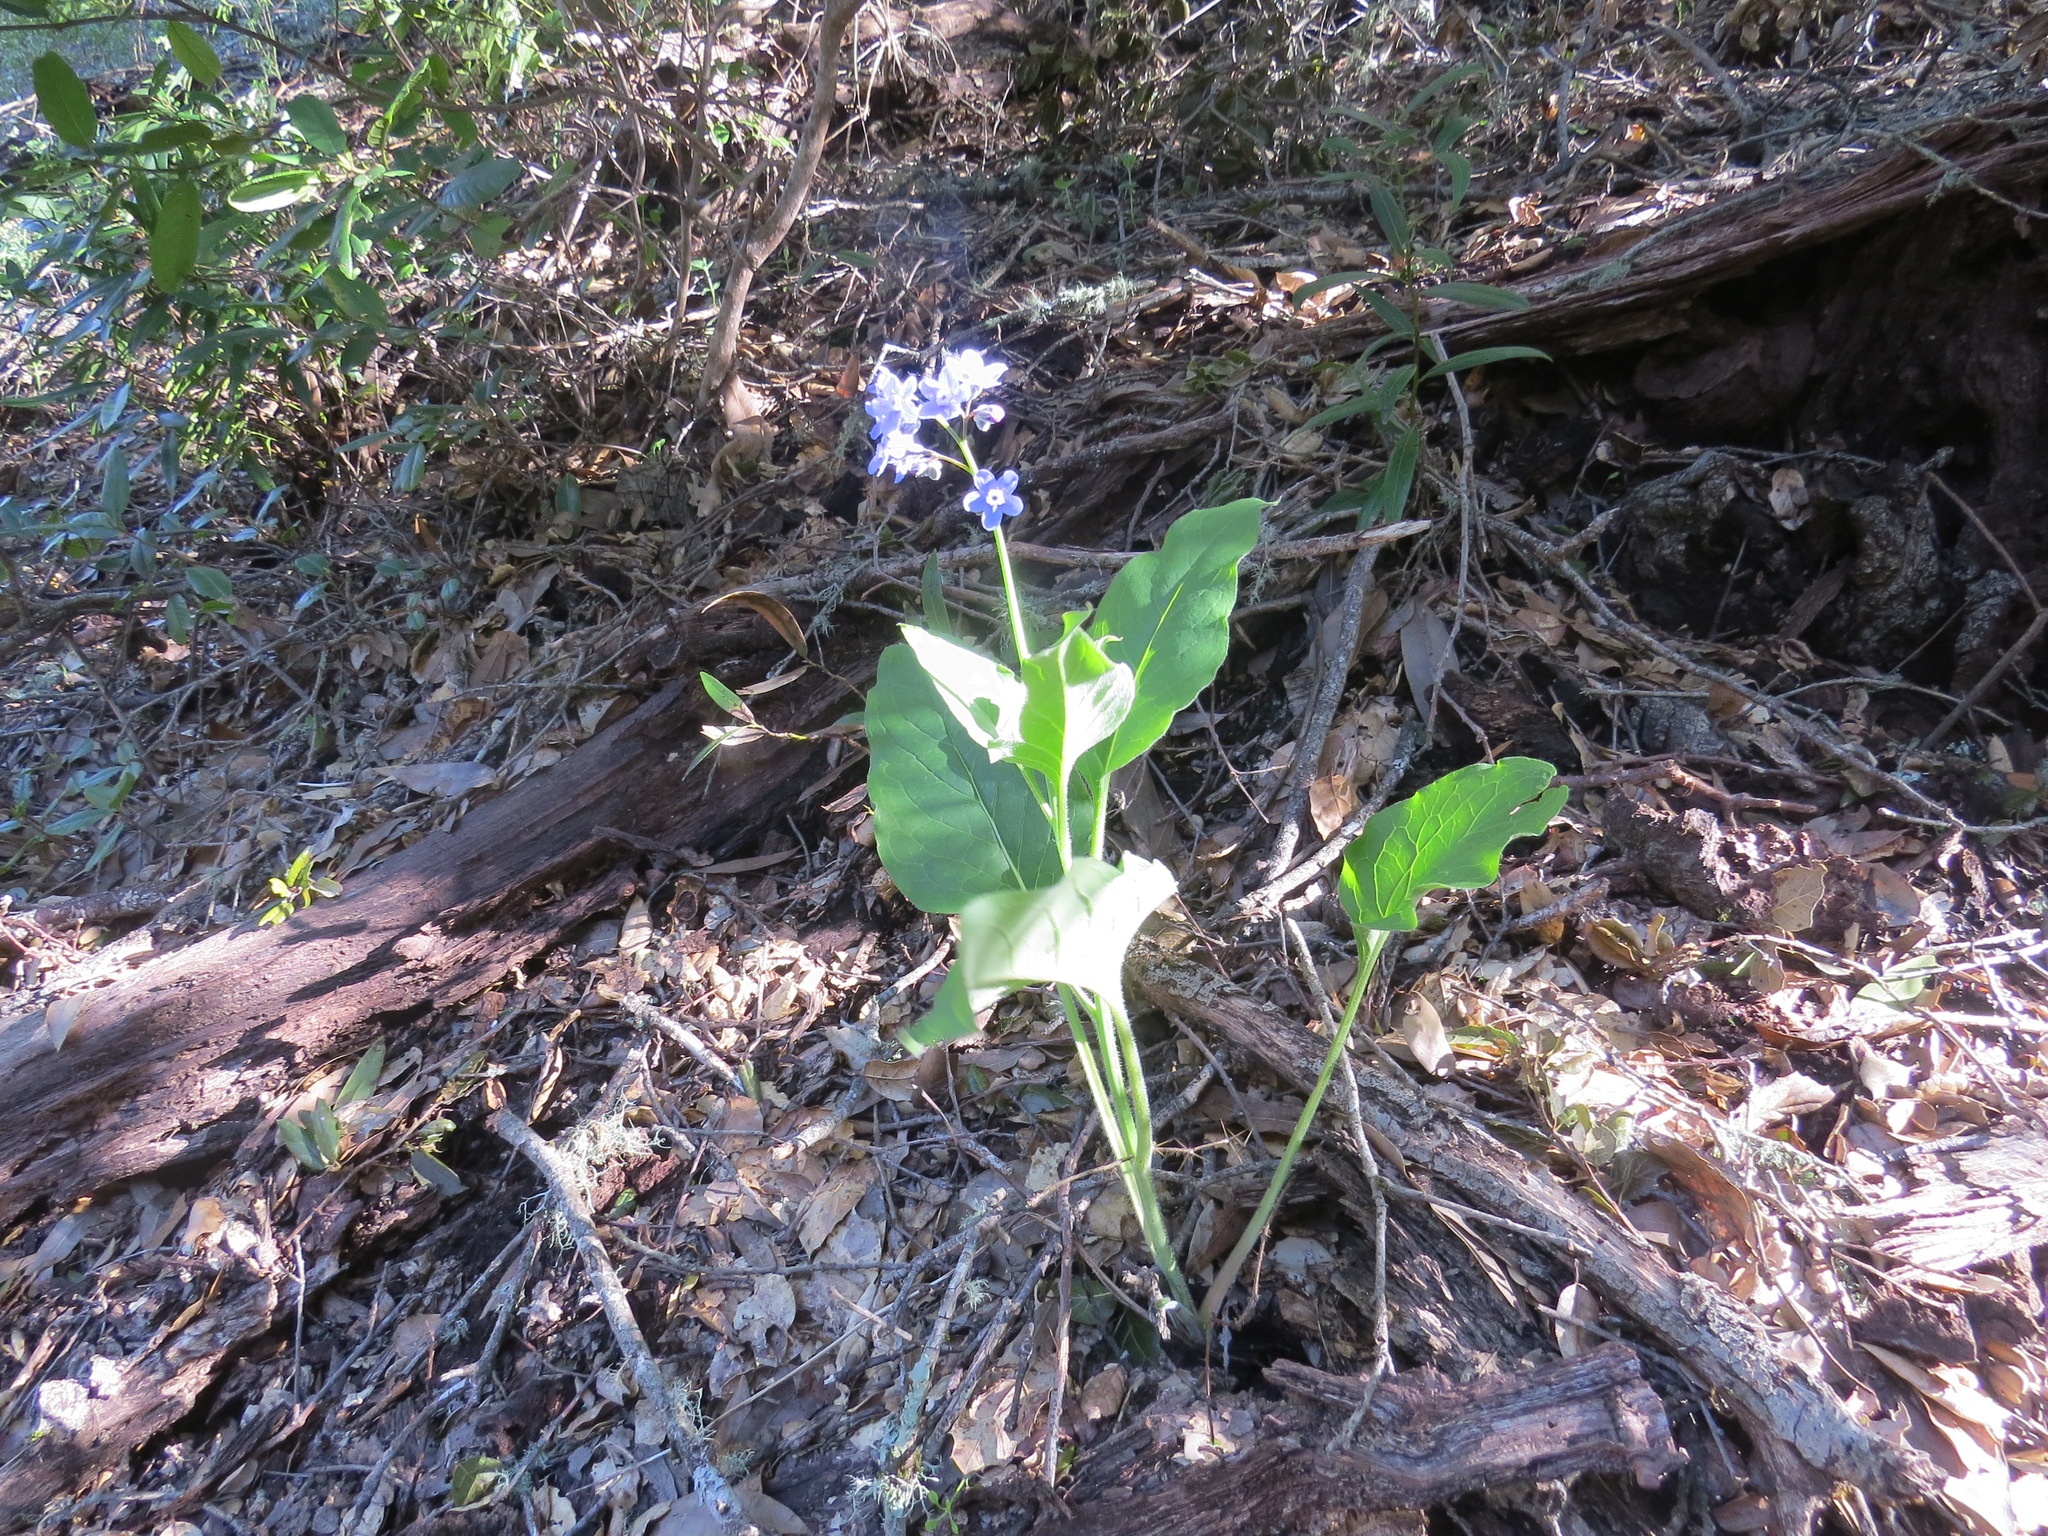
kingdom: Plantae
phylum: Tracheophyta
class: Magnoliopsida
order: Boraginales
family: Boraginaceae
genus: Adelinia
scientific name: Adelinia grande
